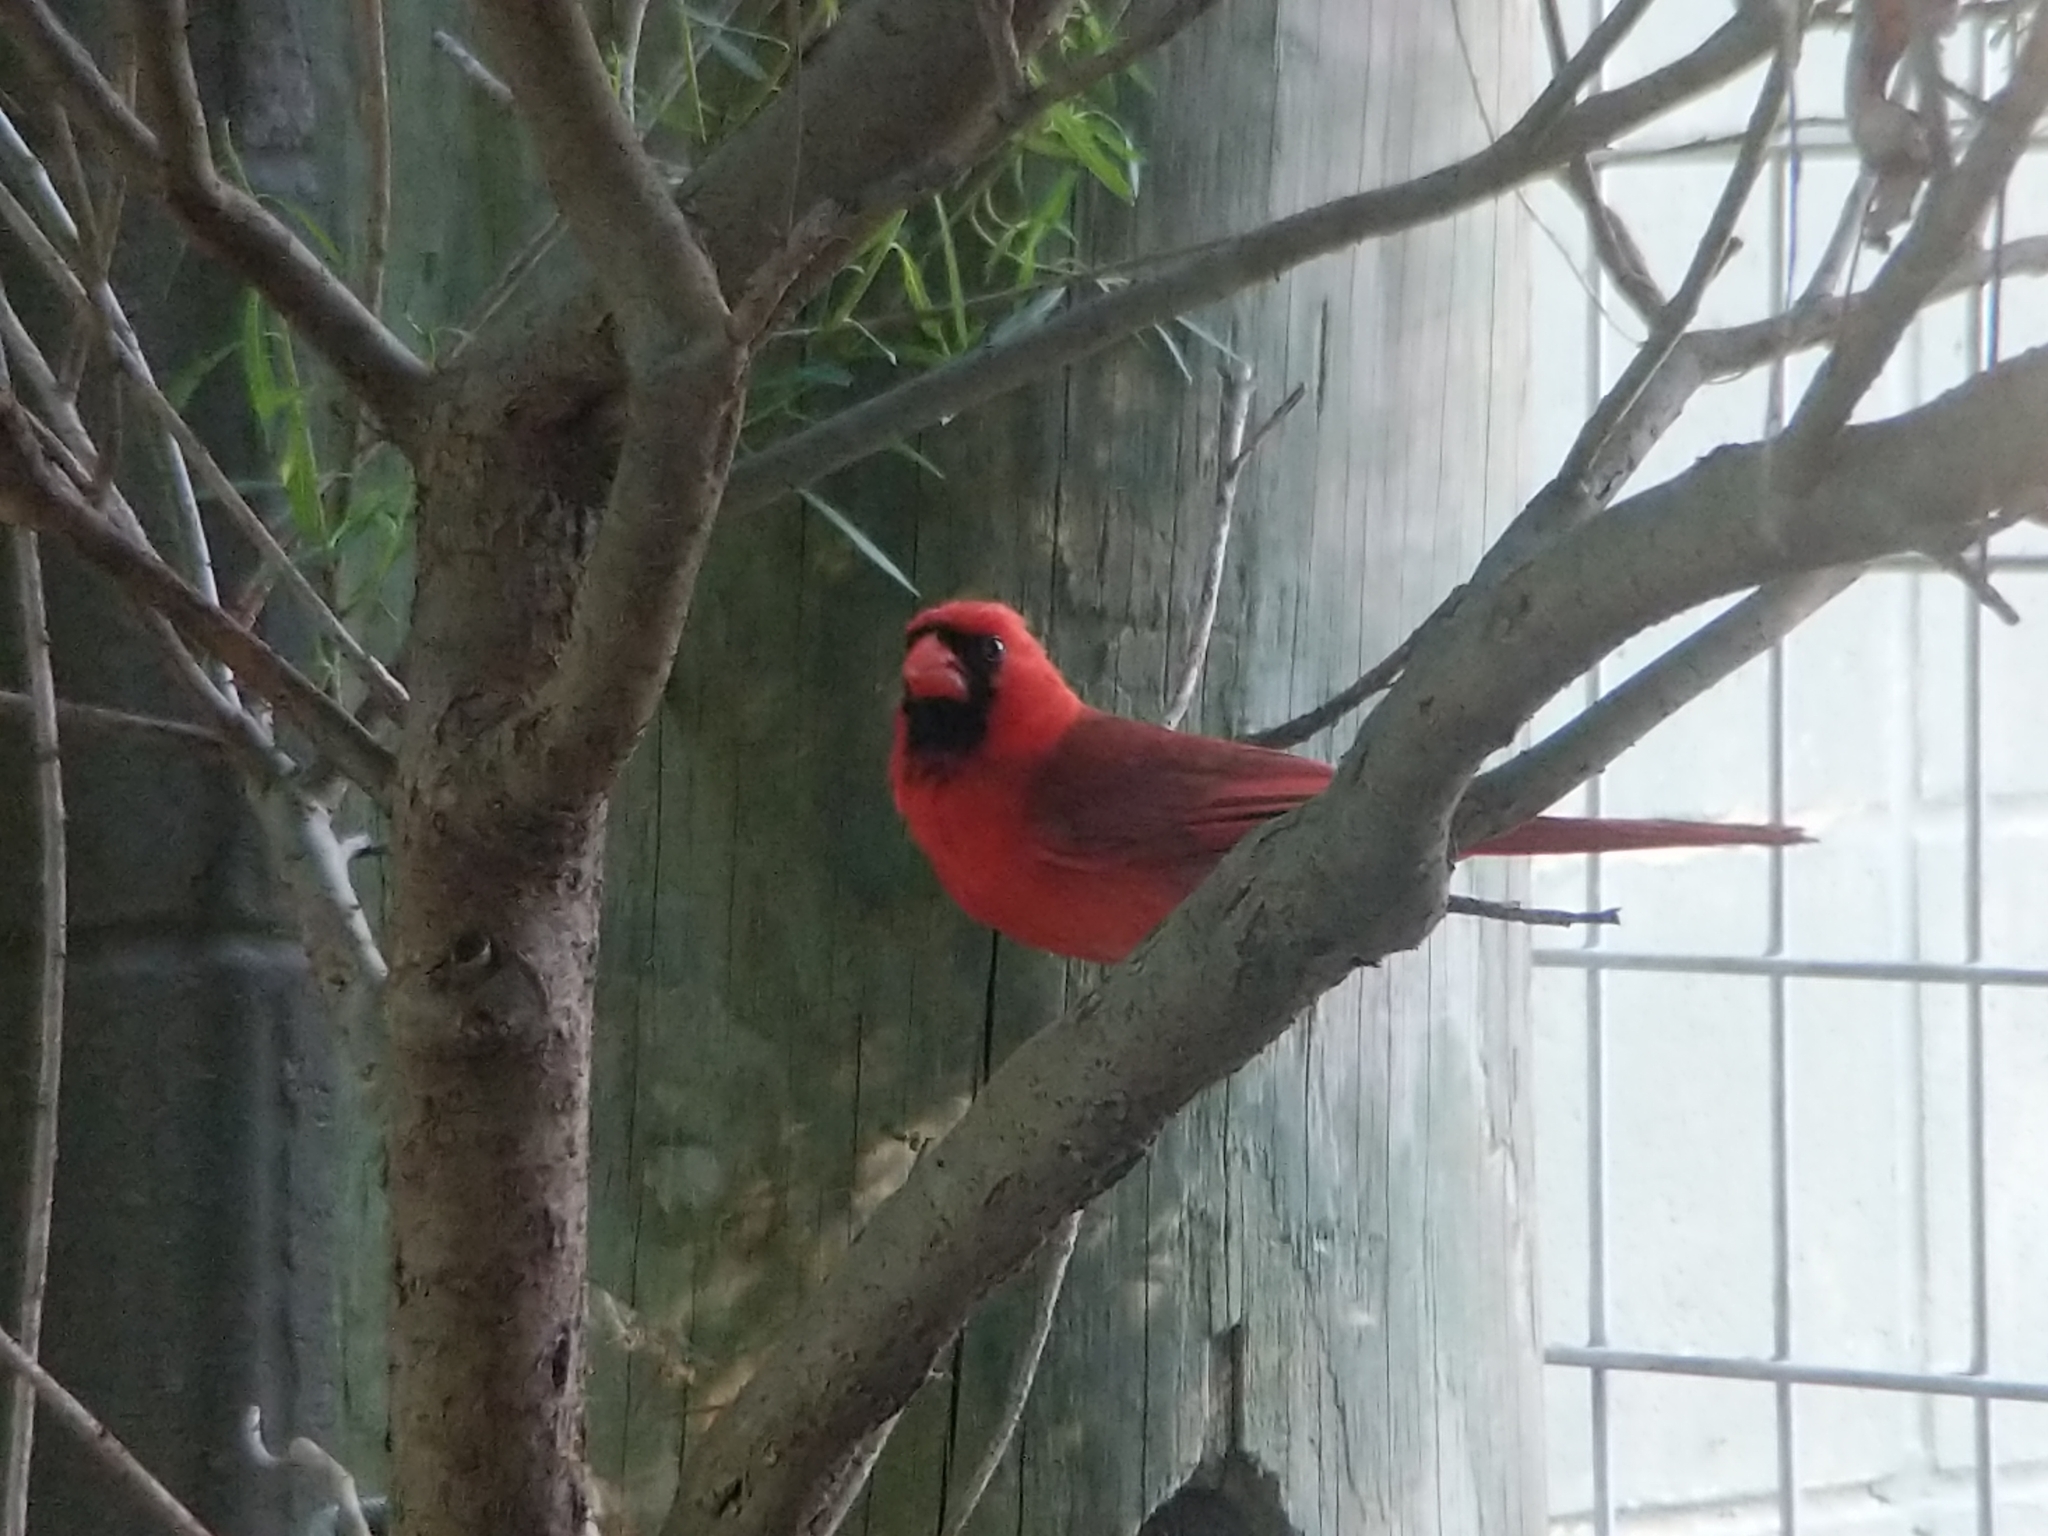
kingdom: Animalia
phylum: Chordata
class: Aves
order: Passeriformes
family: Cardinalidae
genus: Cardinalis
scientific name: Cardinalis cardinalis
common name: Northern cardinal
